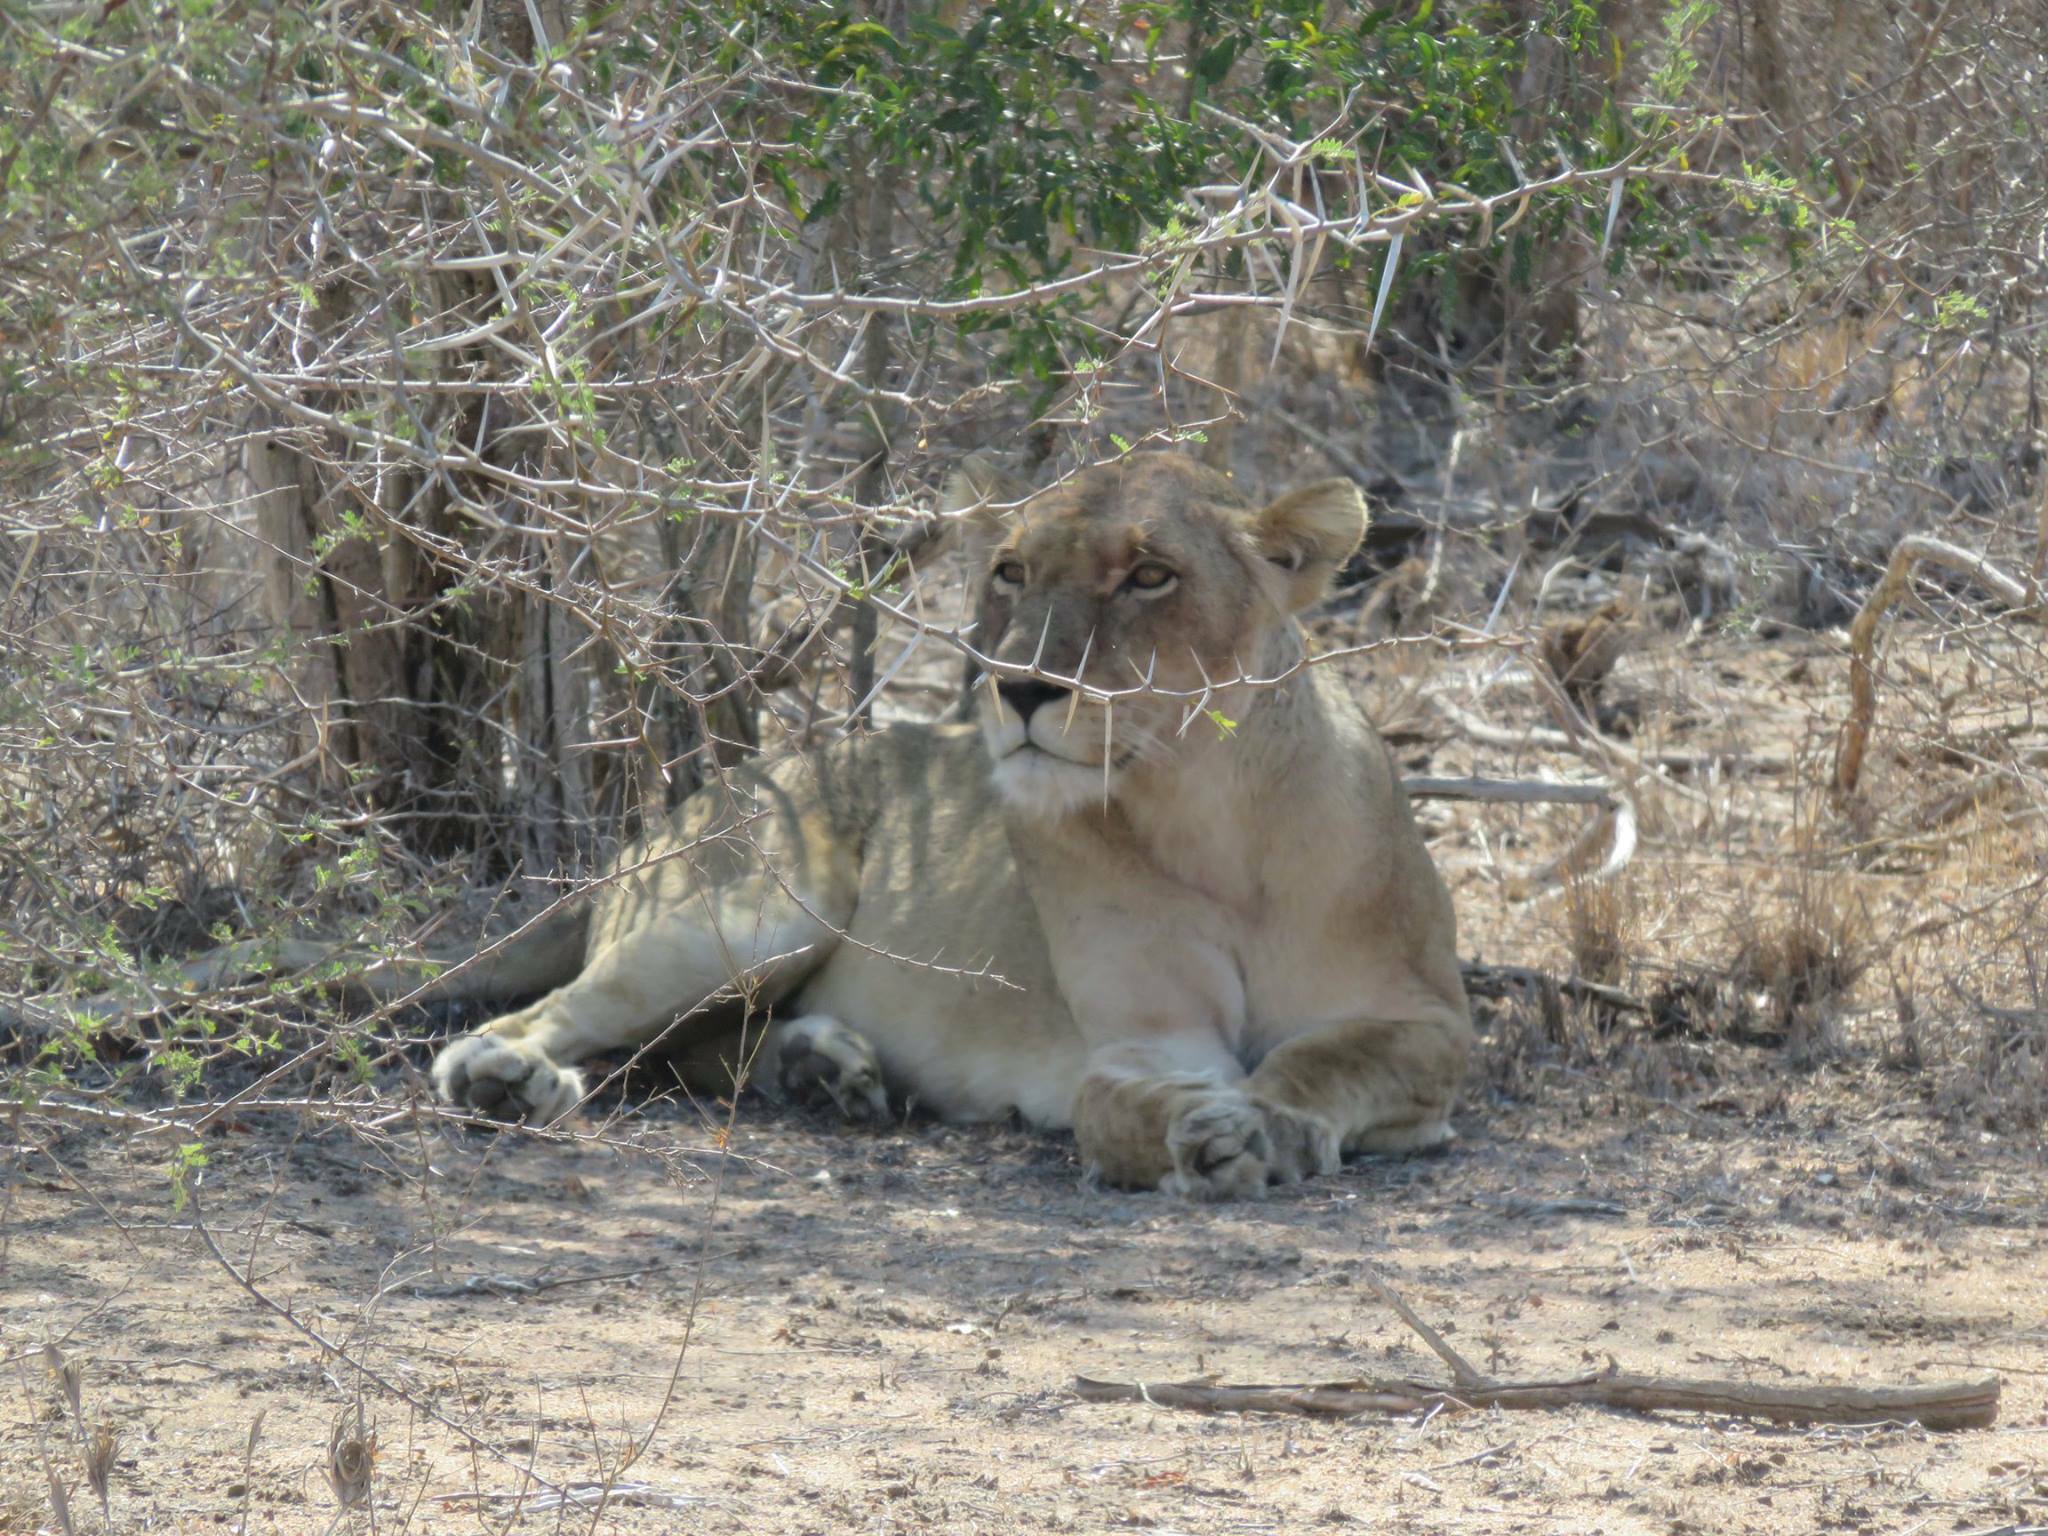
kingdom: Animalia
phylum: Chordata
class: Mammalia
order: Carnivora
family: Felidae
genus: Panthera
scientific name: Panthera leo
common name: Lion
